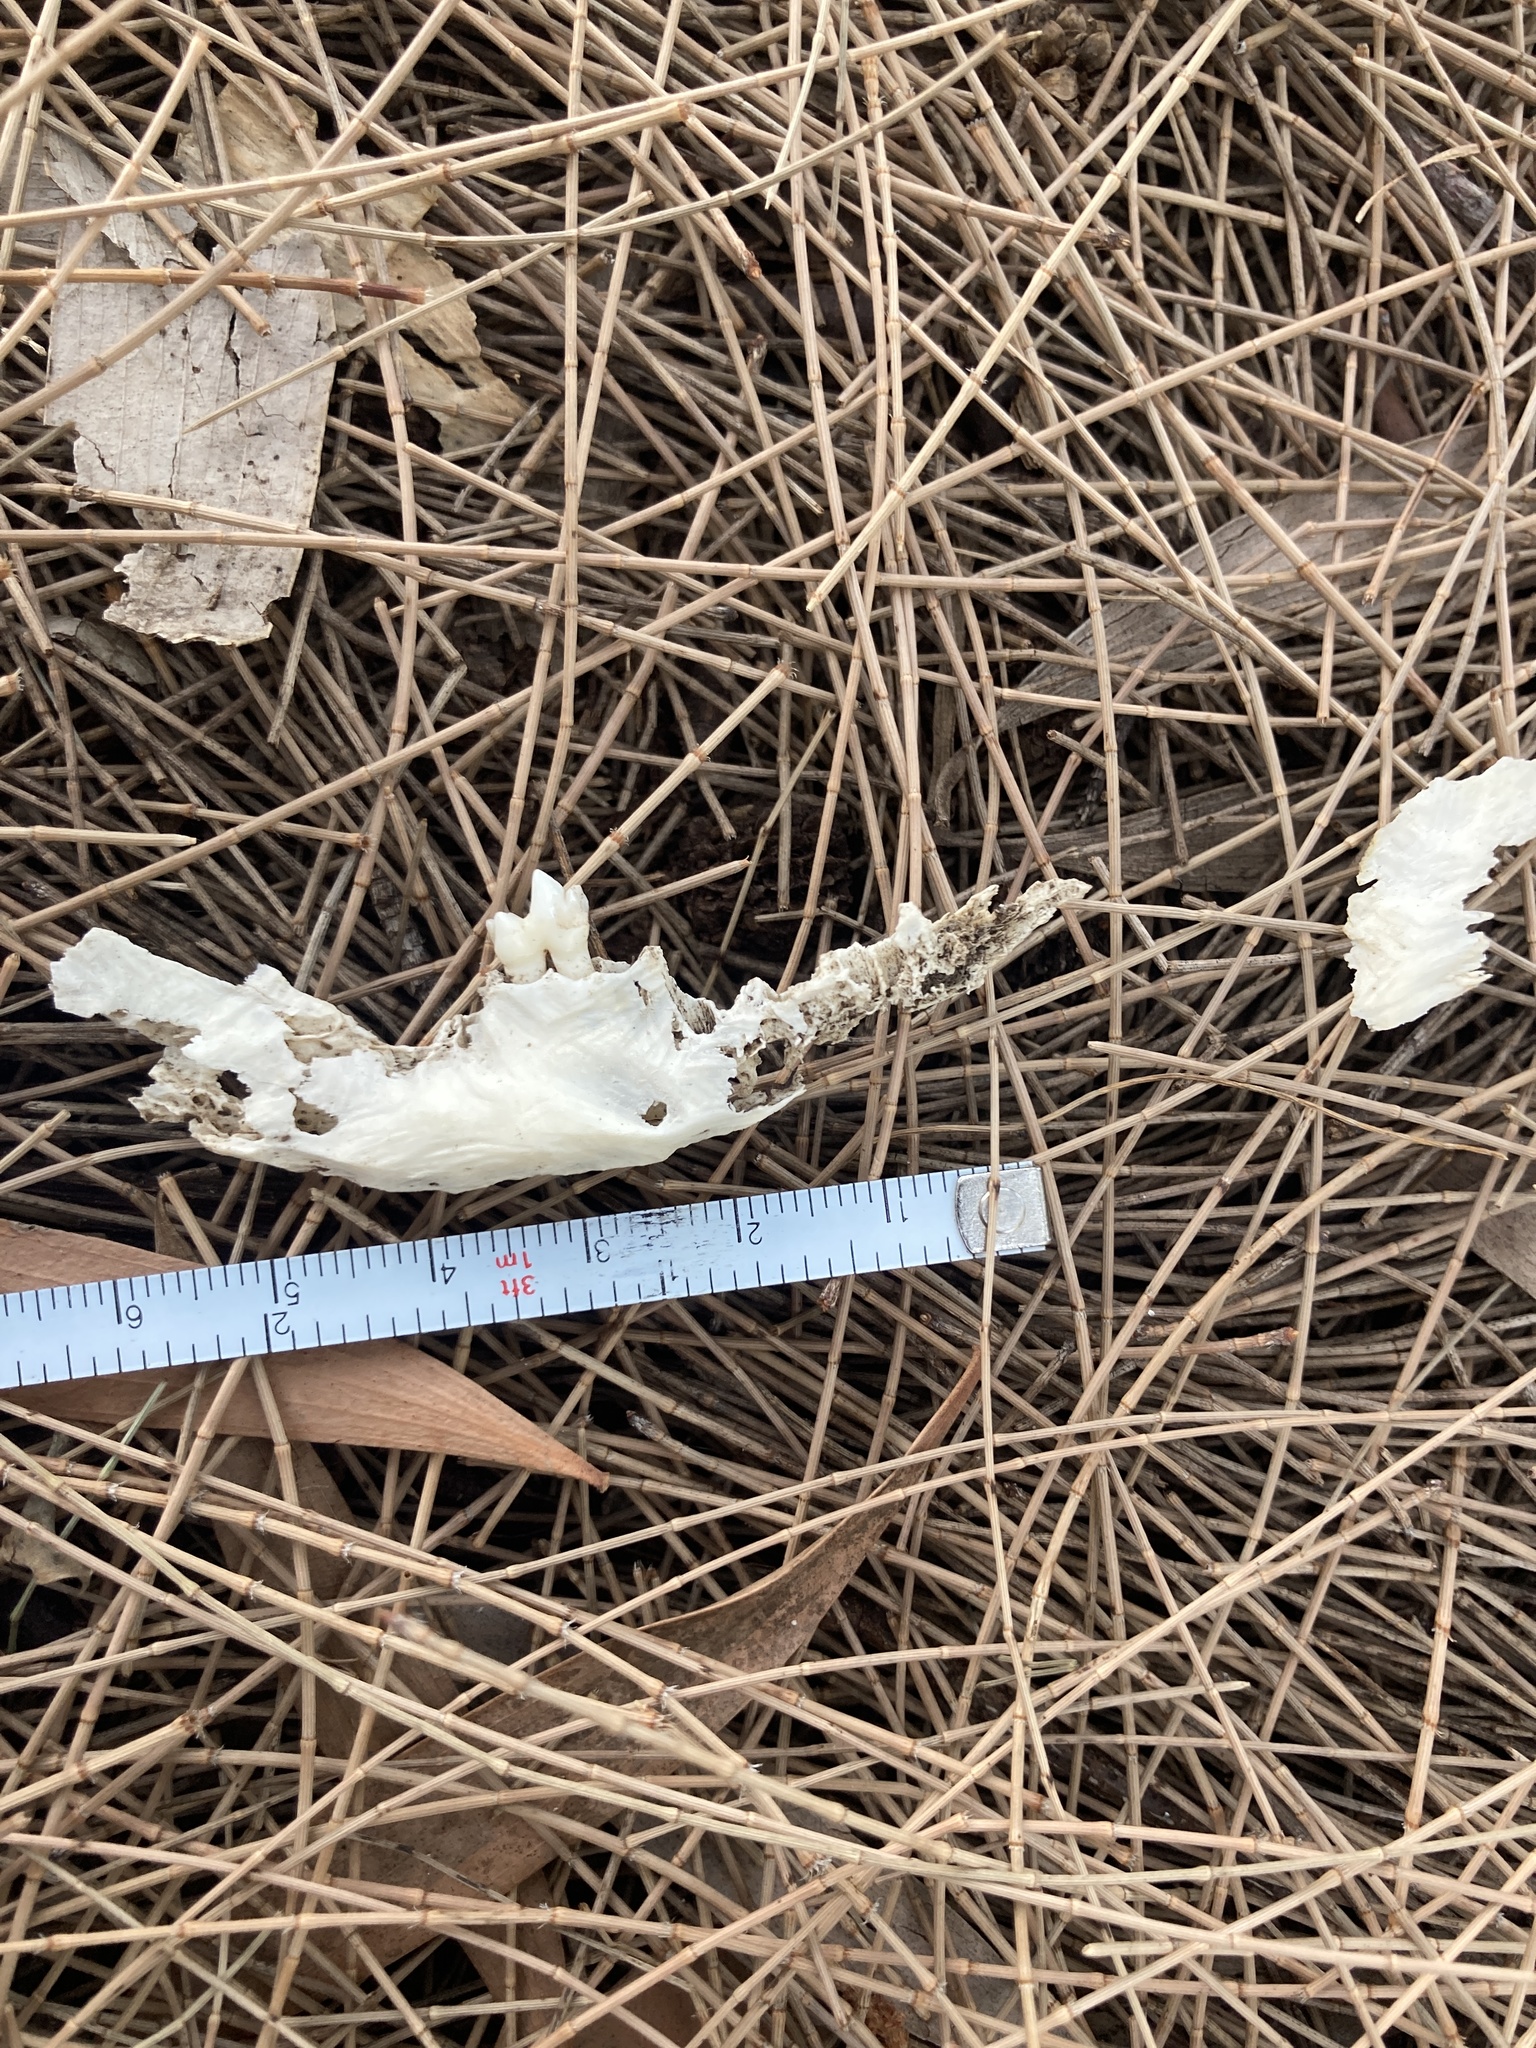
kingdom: Animalia
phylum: Chordata
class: Mammalia
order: Didelphimorphia
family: Didelphidae
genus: Didelphis
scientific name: Didelphis virginiana
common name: Virginia opossum
